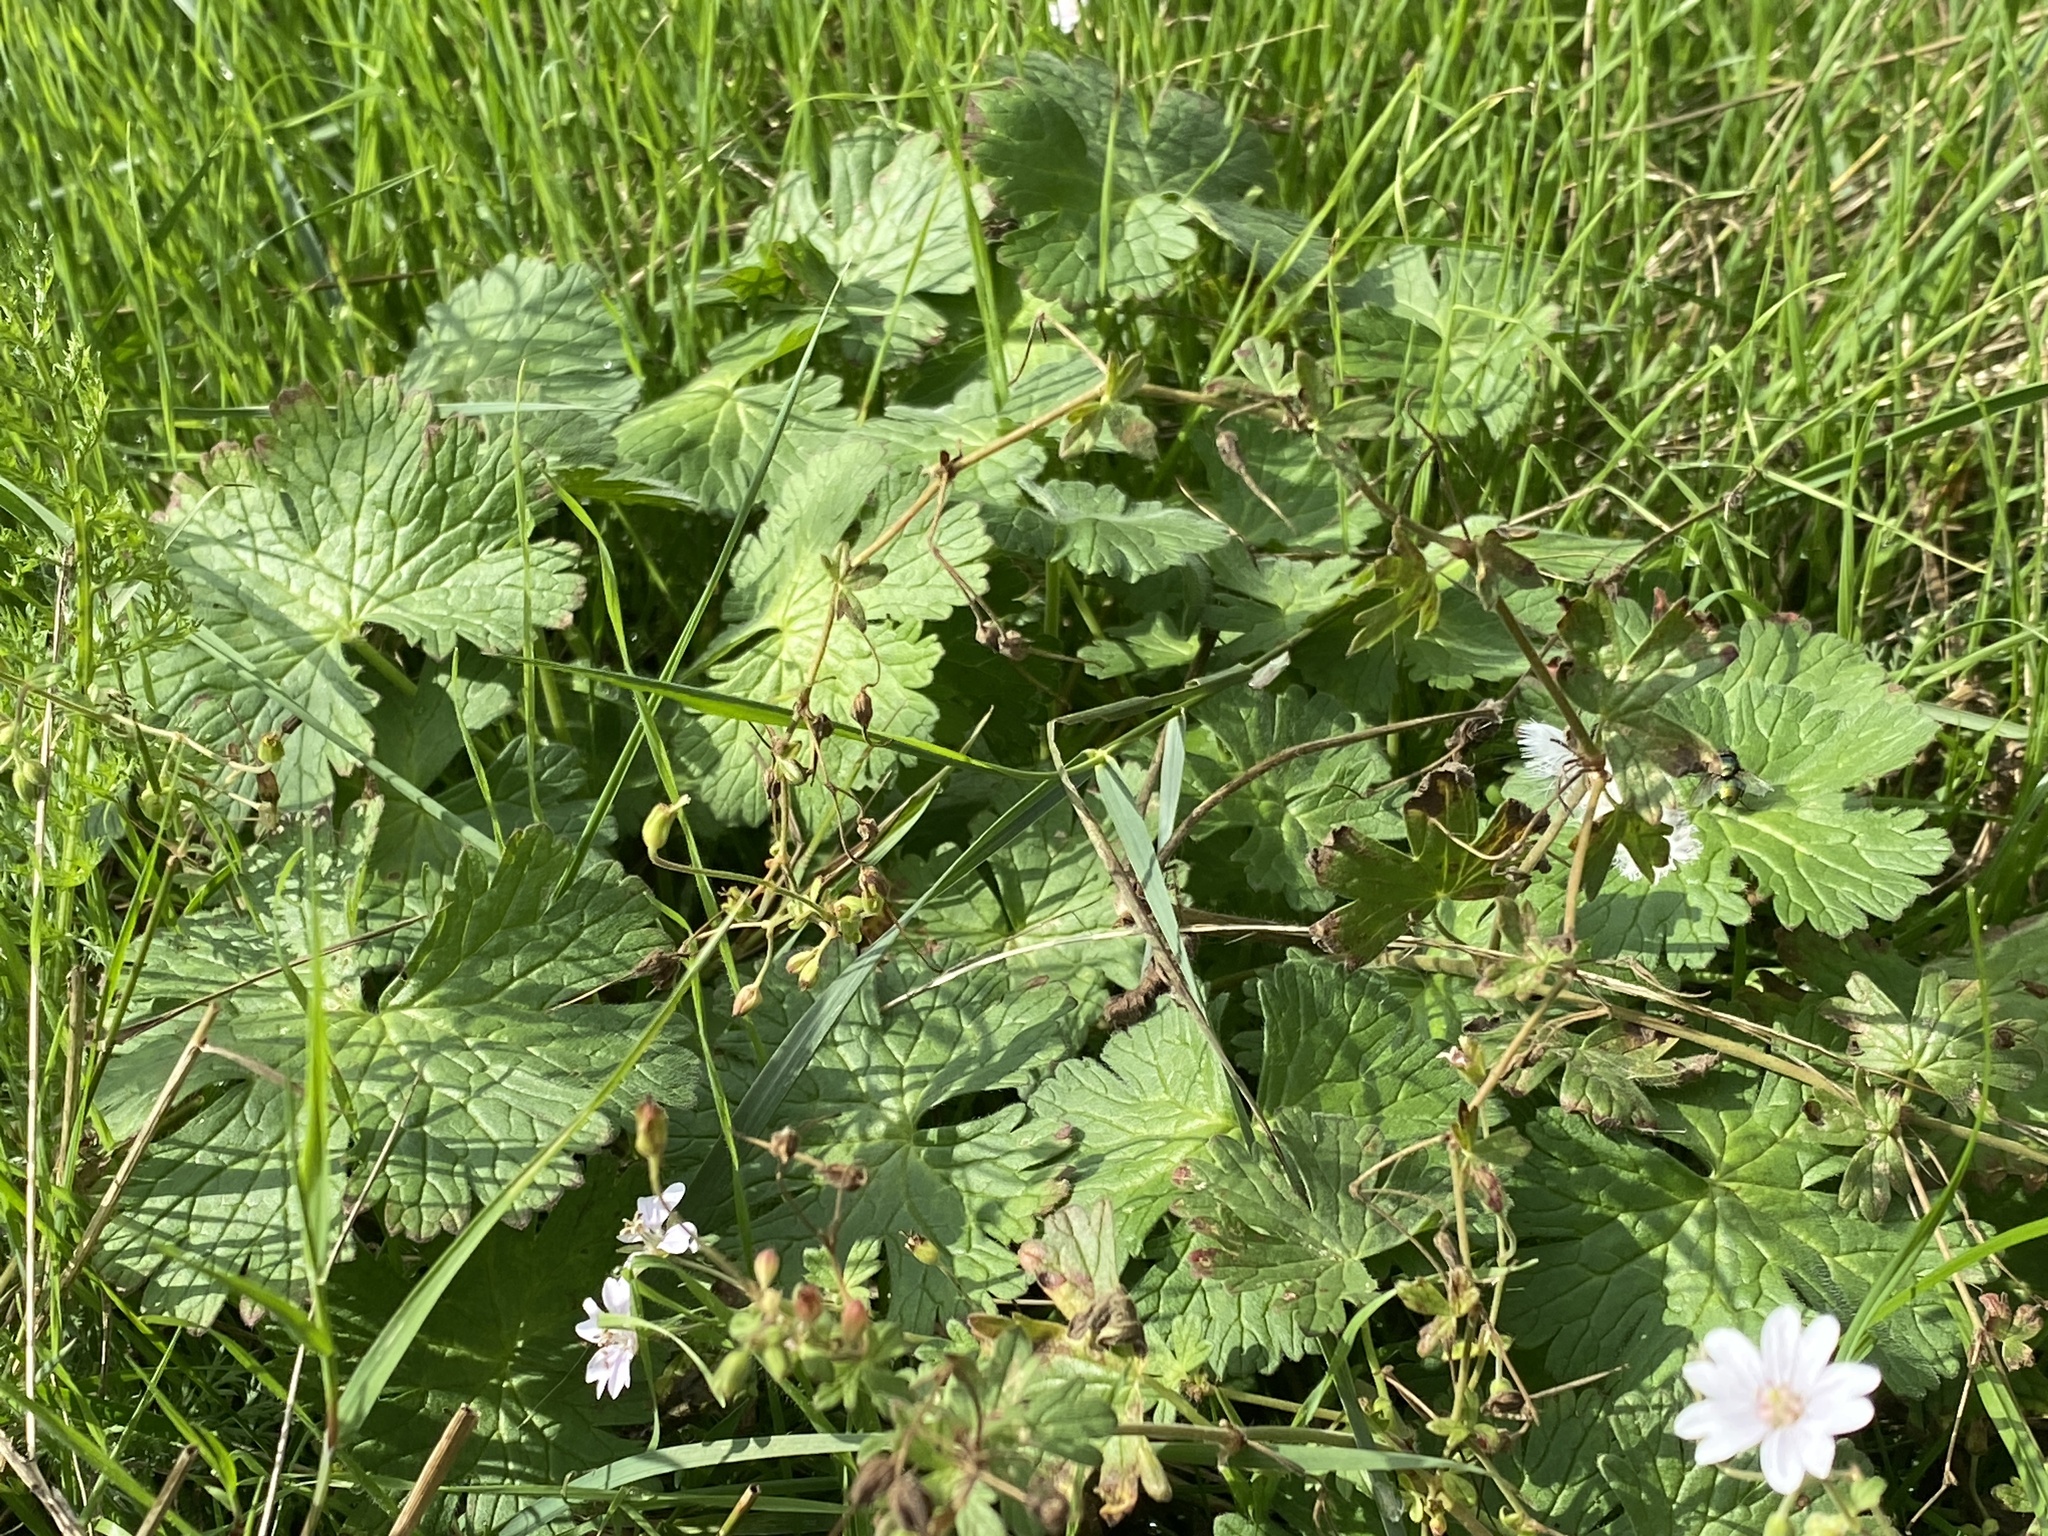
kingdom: Plantae
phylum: Tracheophyta
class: Magnoliopsida
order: Geraniales
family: Geraniaceae
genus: Geranium
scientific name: Geranium pyrenaicum
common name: Hedgerow crane's-bill
